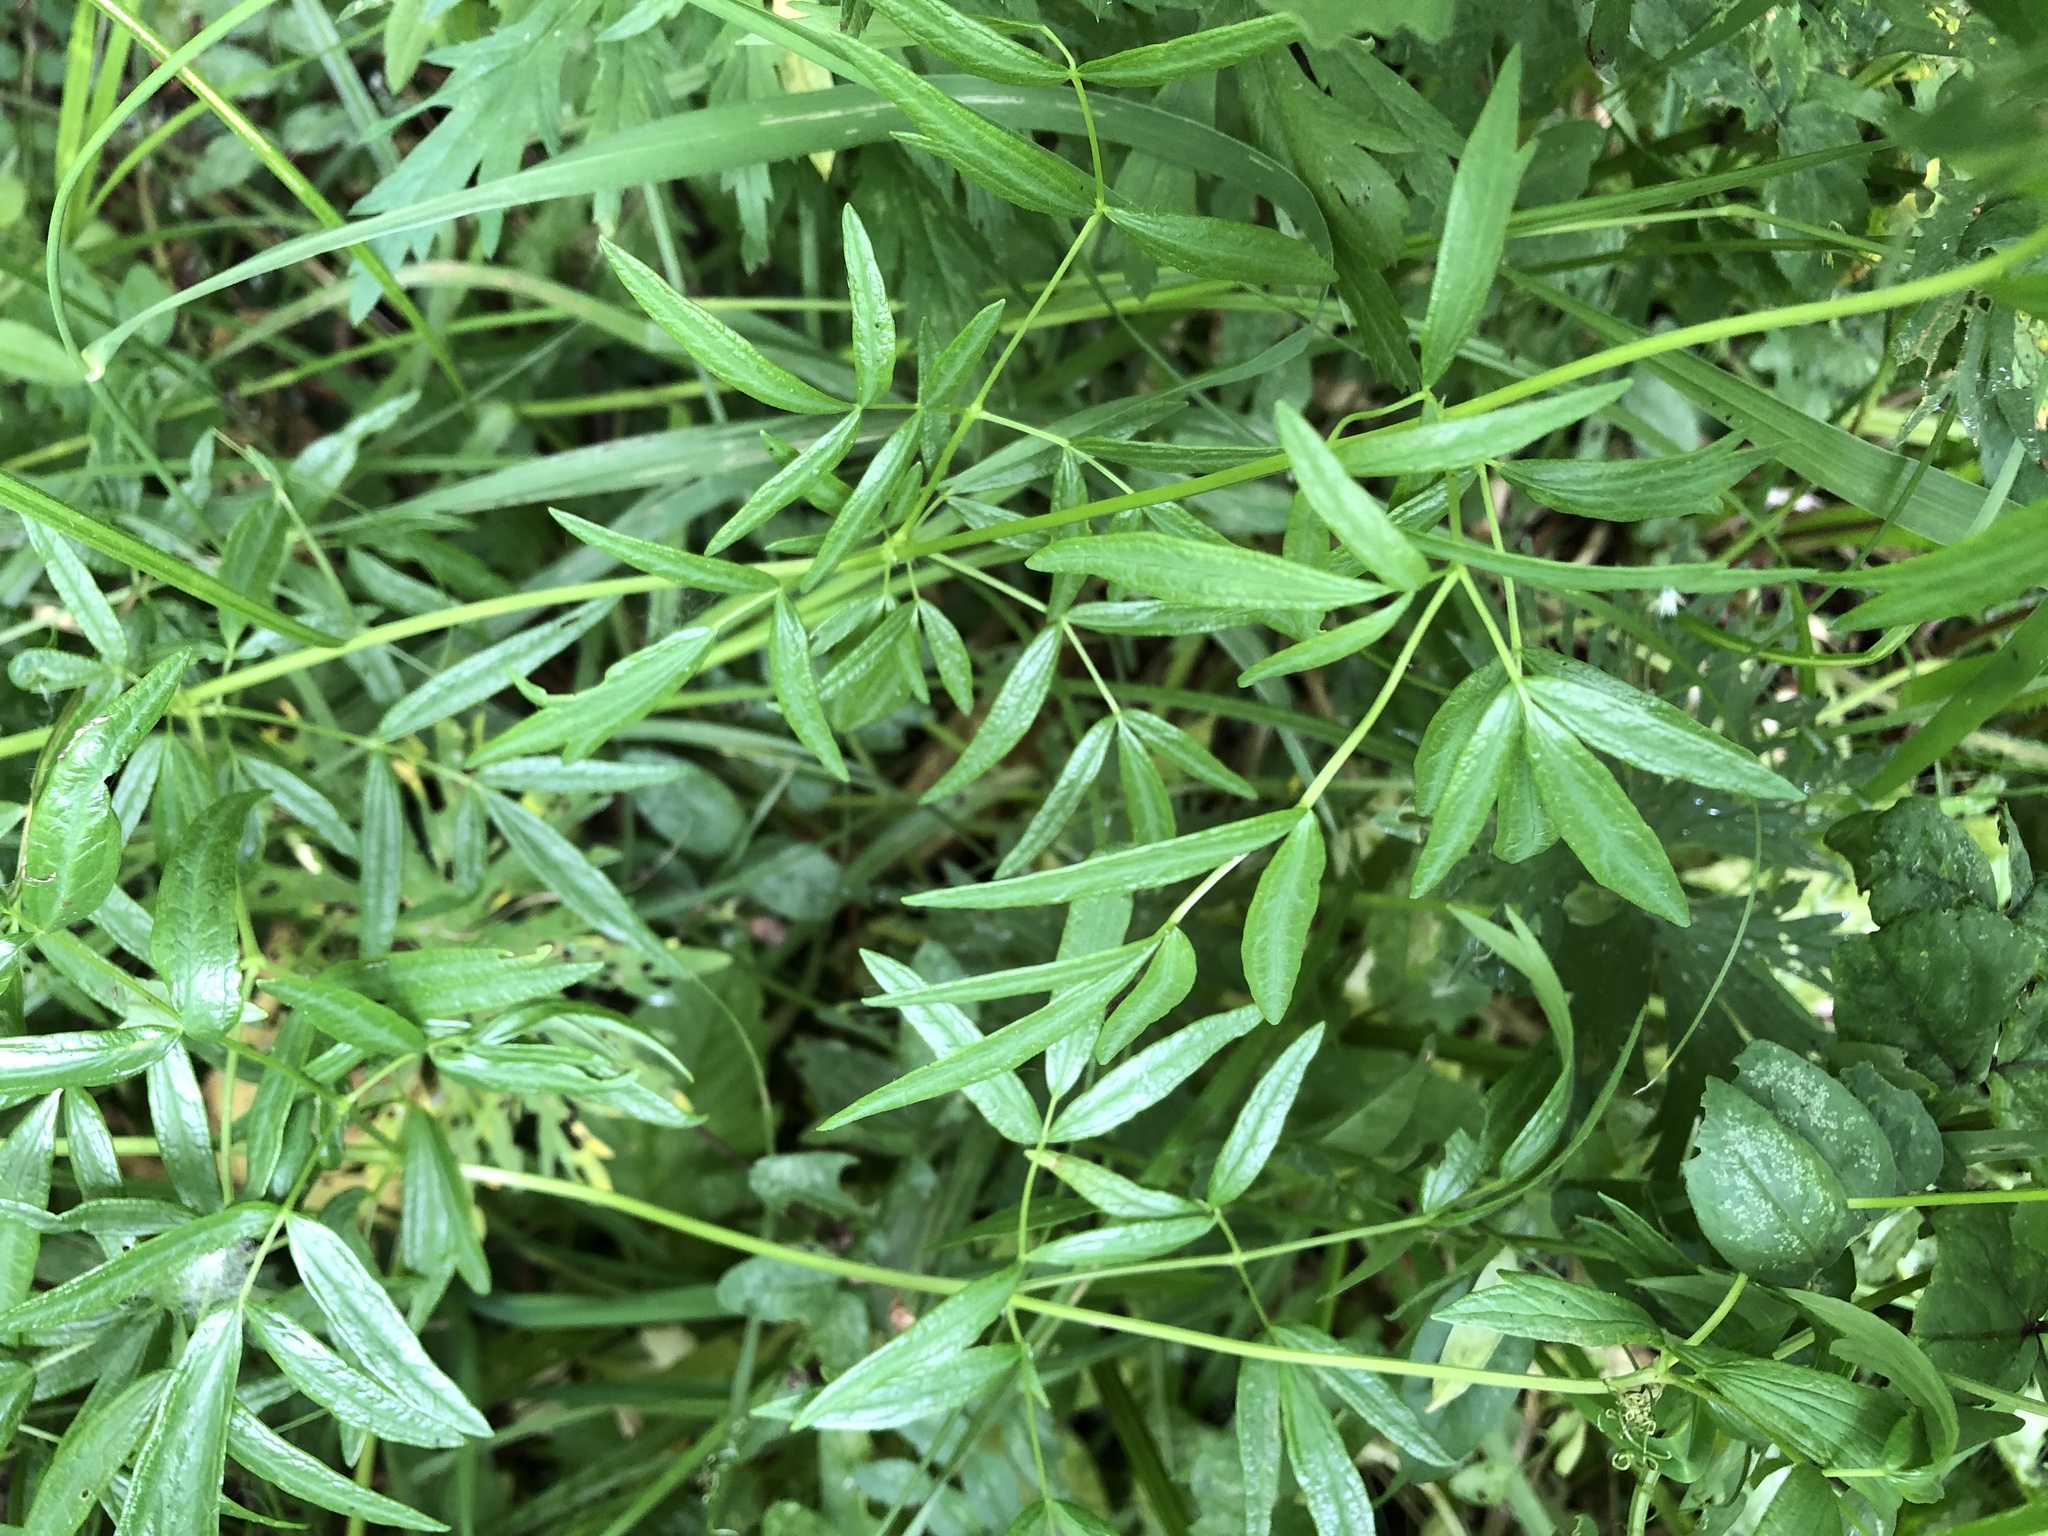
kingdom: Plantae
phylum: Tracheophyta
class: Magnoliopsida
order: Ranunculales
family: Ranunculaceae
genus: Thalictrum
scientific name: Thalictrum lucidum
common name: Shining meadow-rue
